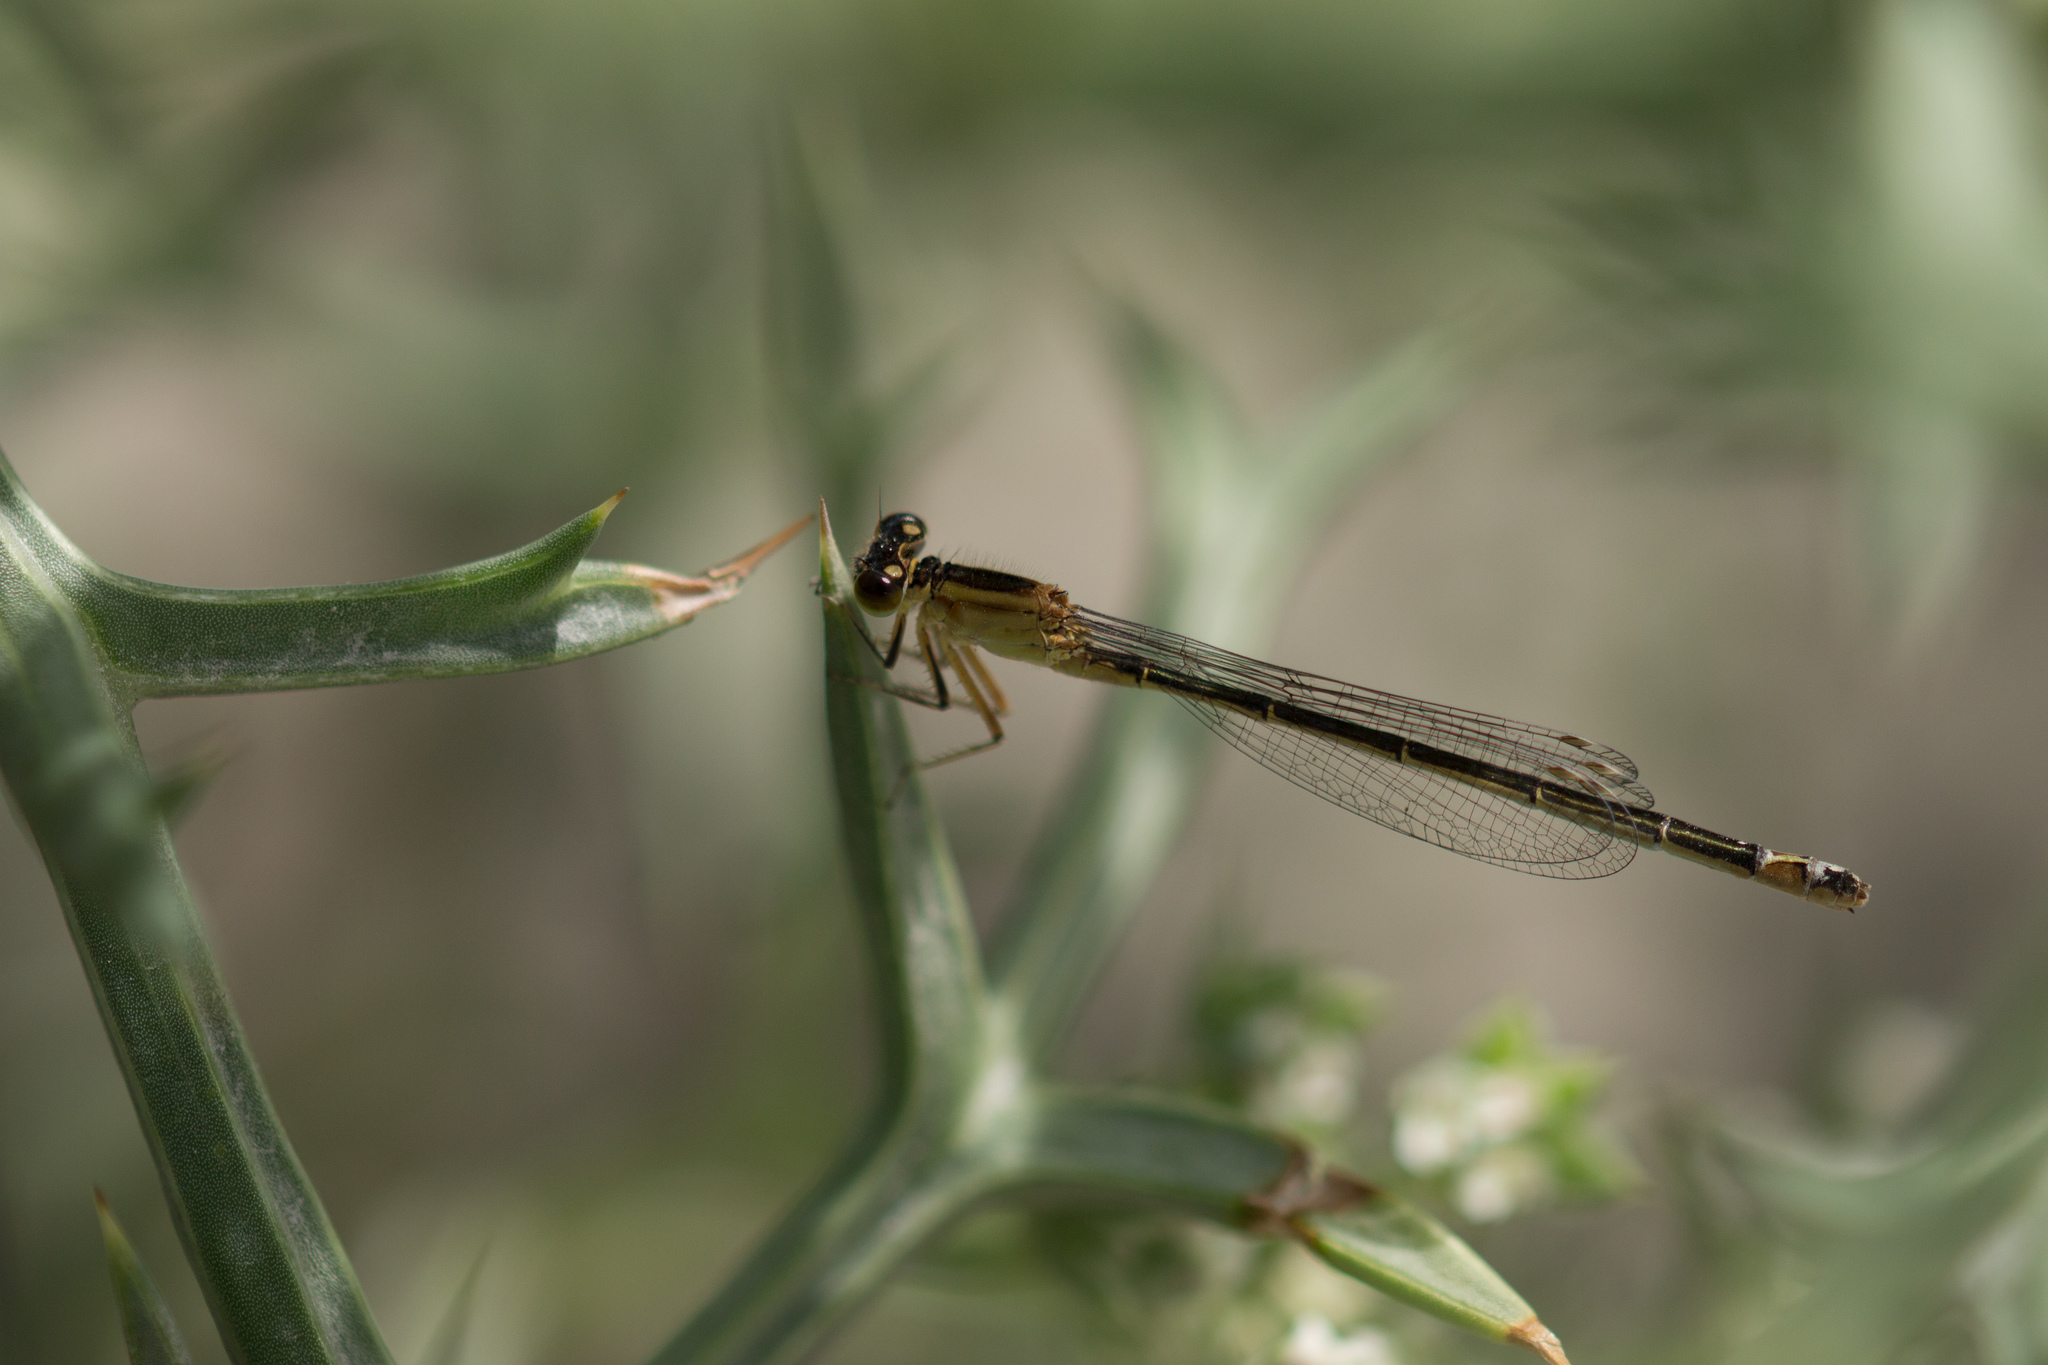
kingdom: Animalia
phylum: Arthropoda
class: Insecta
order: Odonata
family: Coenagrionidae
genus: Ischnura
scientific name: Ischnura elegans
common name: Blue-tailed damselfly
